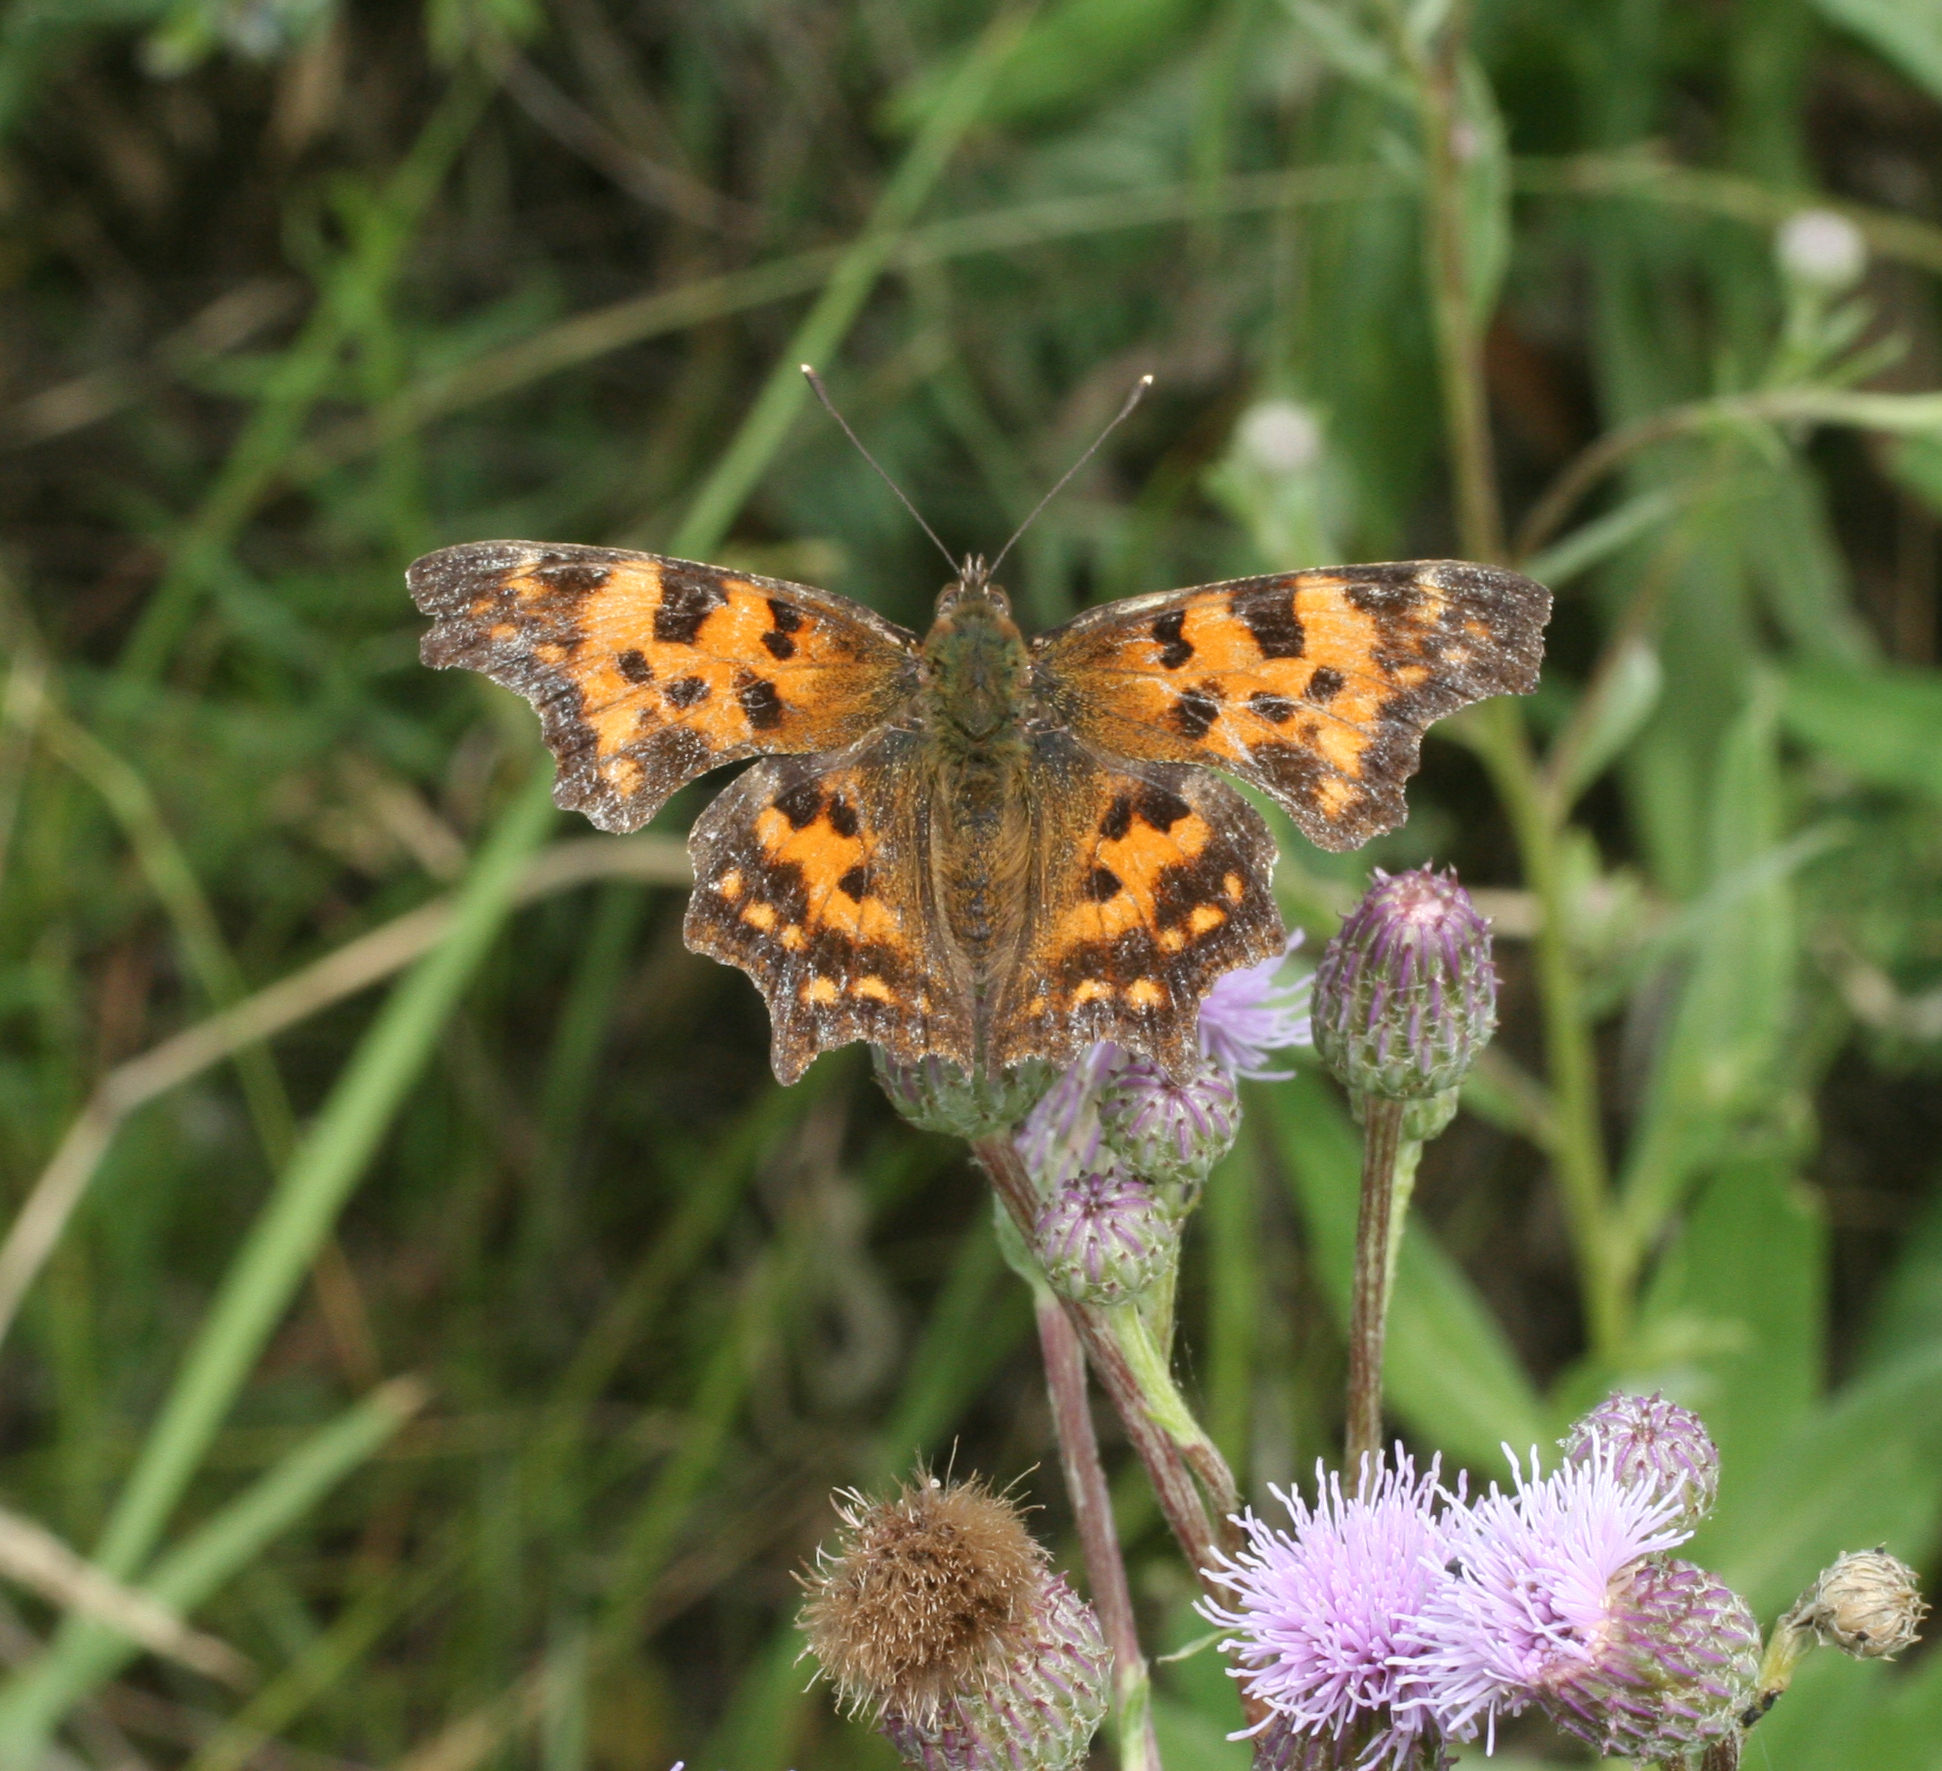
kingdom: Animalia
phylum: Arthropoda
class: Insecta
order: Lepidoptera
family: Nymphalidae
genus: Polygonia
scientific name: Polygonia c-album
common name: Comma
